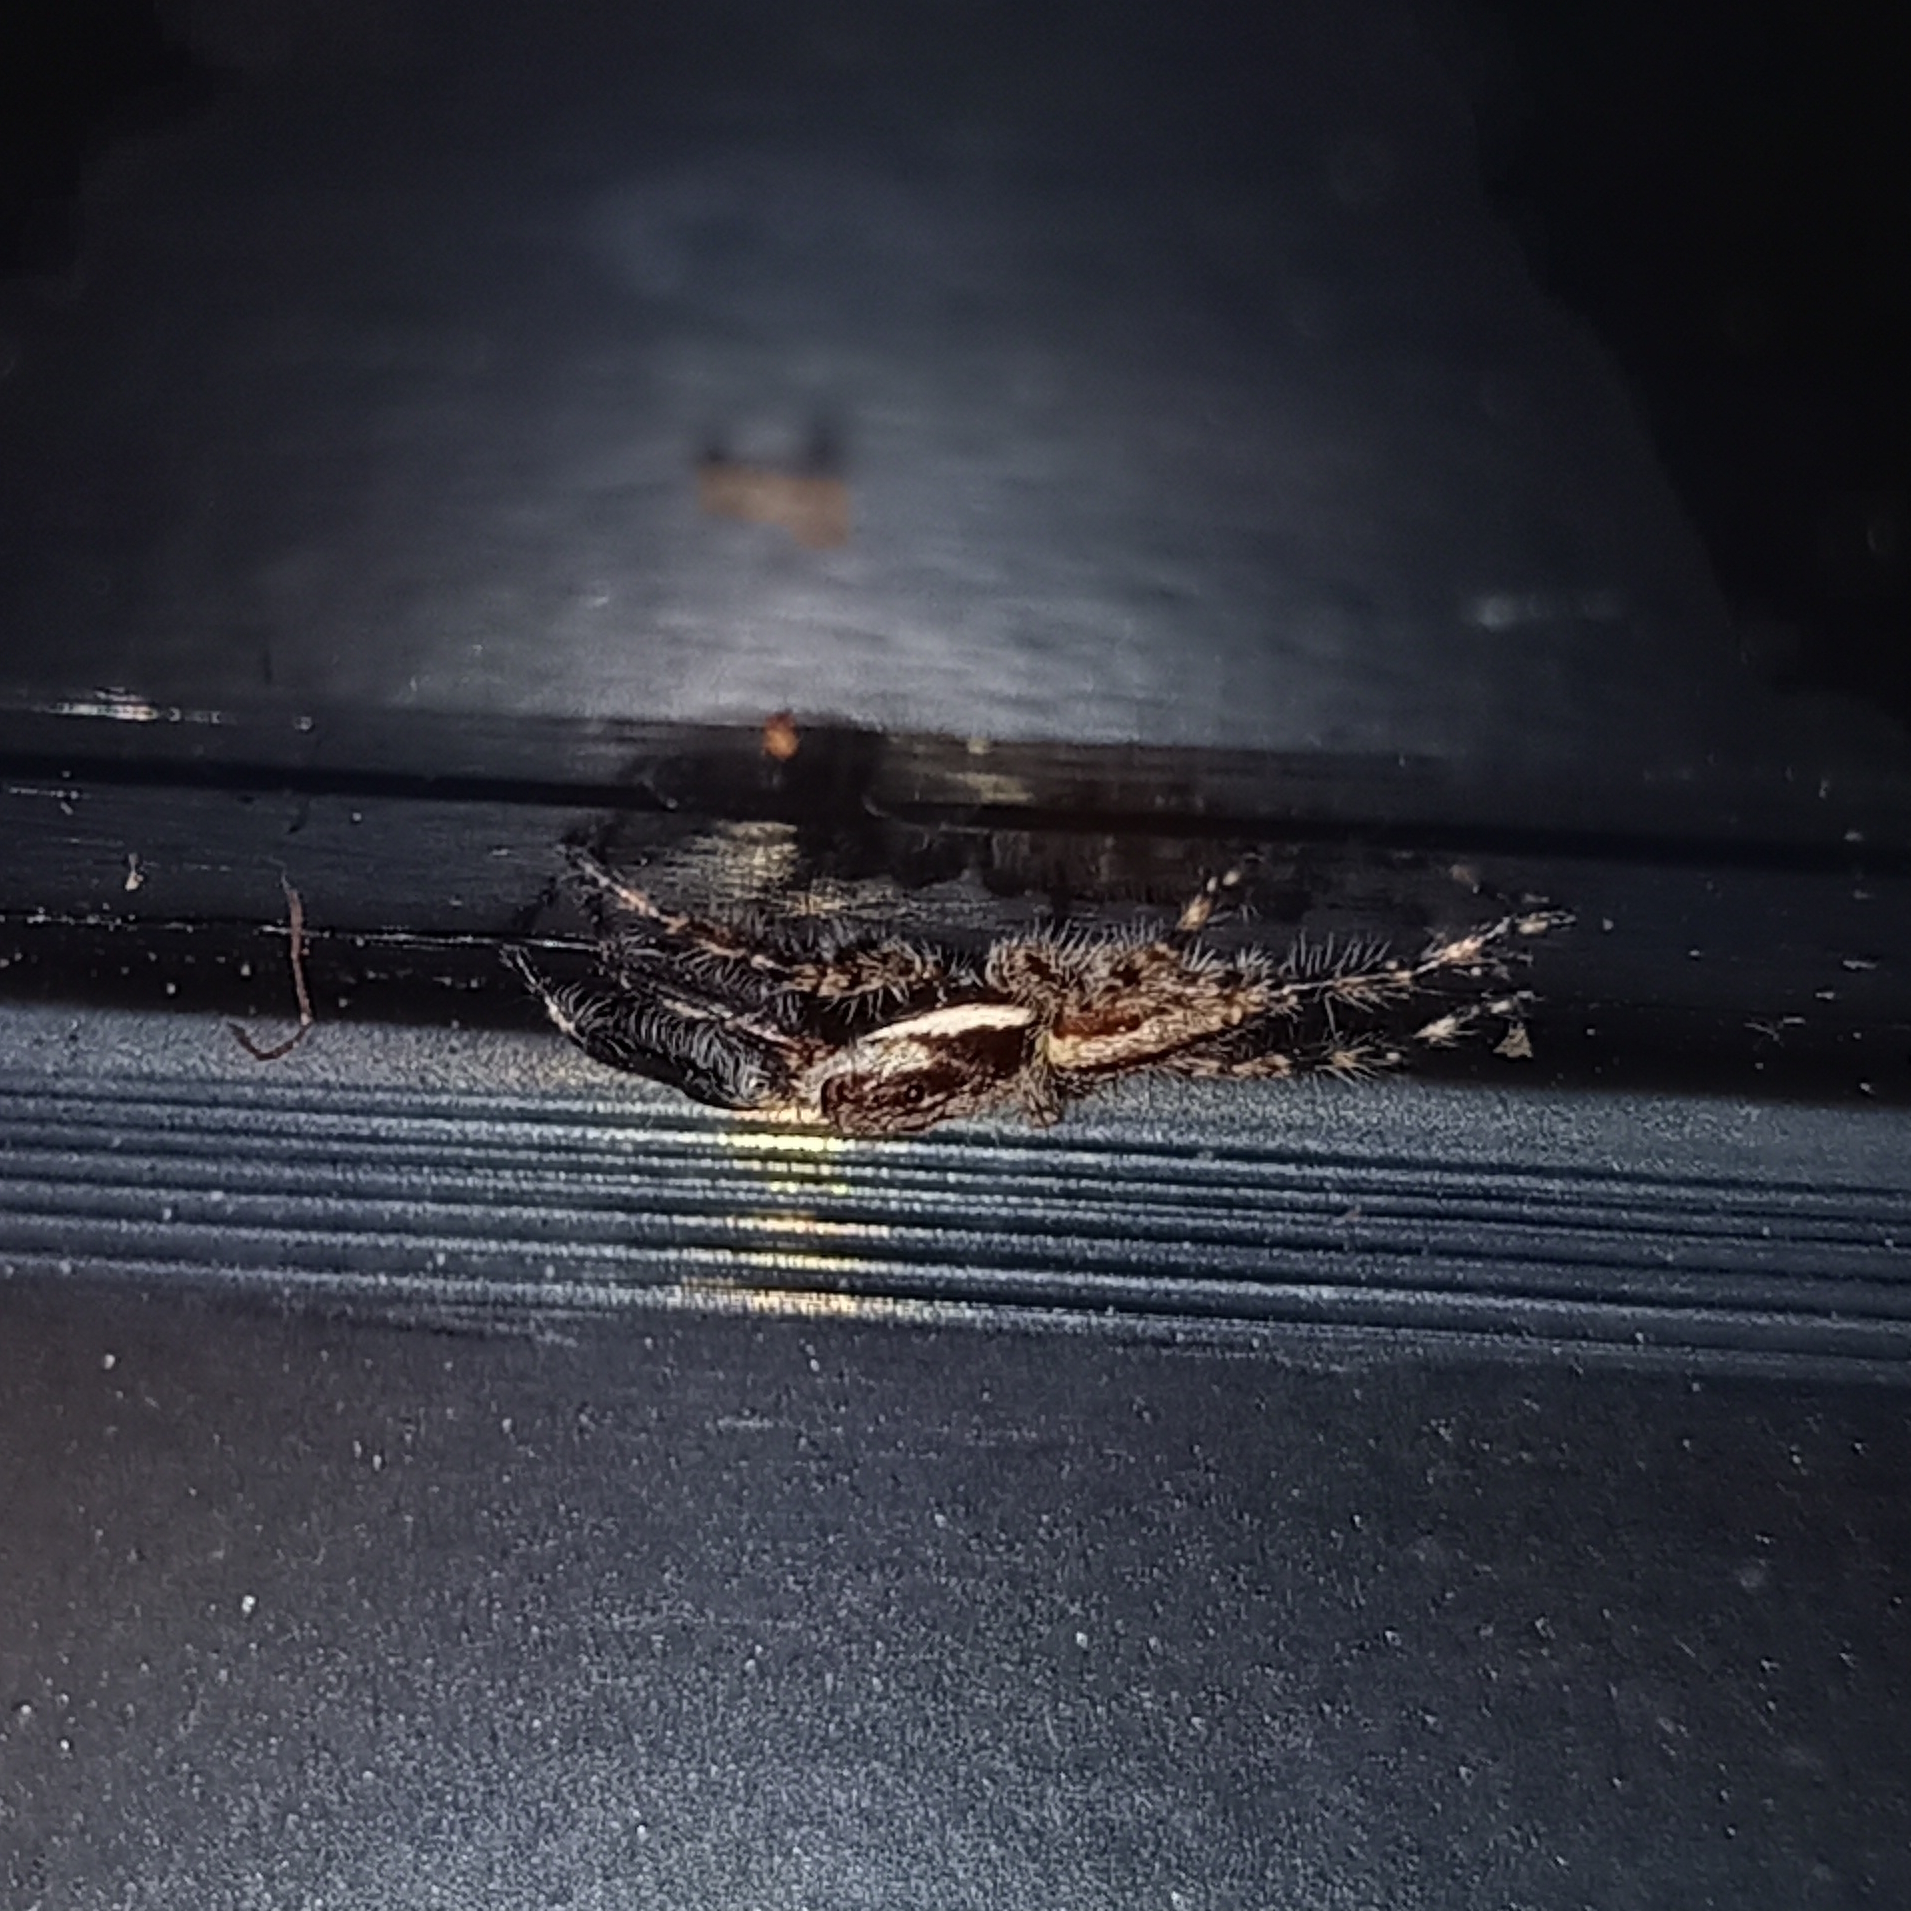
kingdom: Animalia
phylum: Arthropoda
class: Arachnida
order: Araneae
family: Salticidae
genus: Menemerus
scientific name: Menemerus bivittatus
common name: Gray wall jumper
